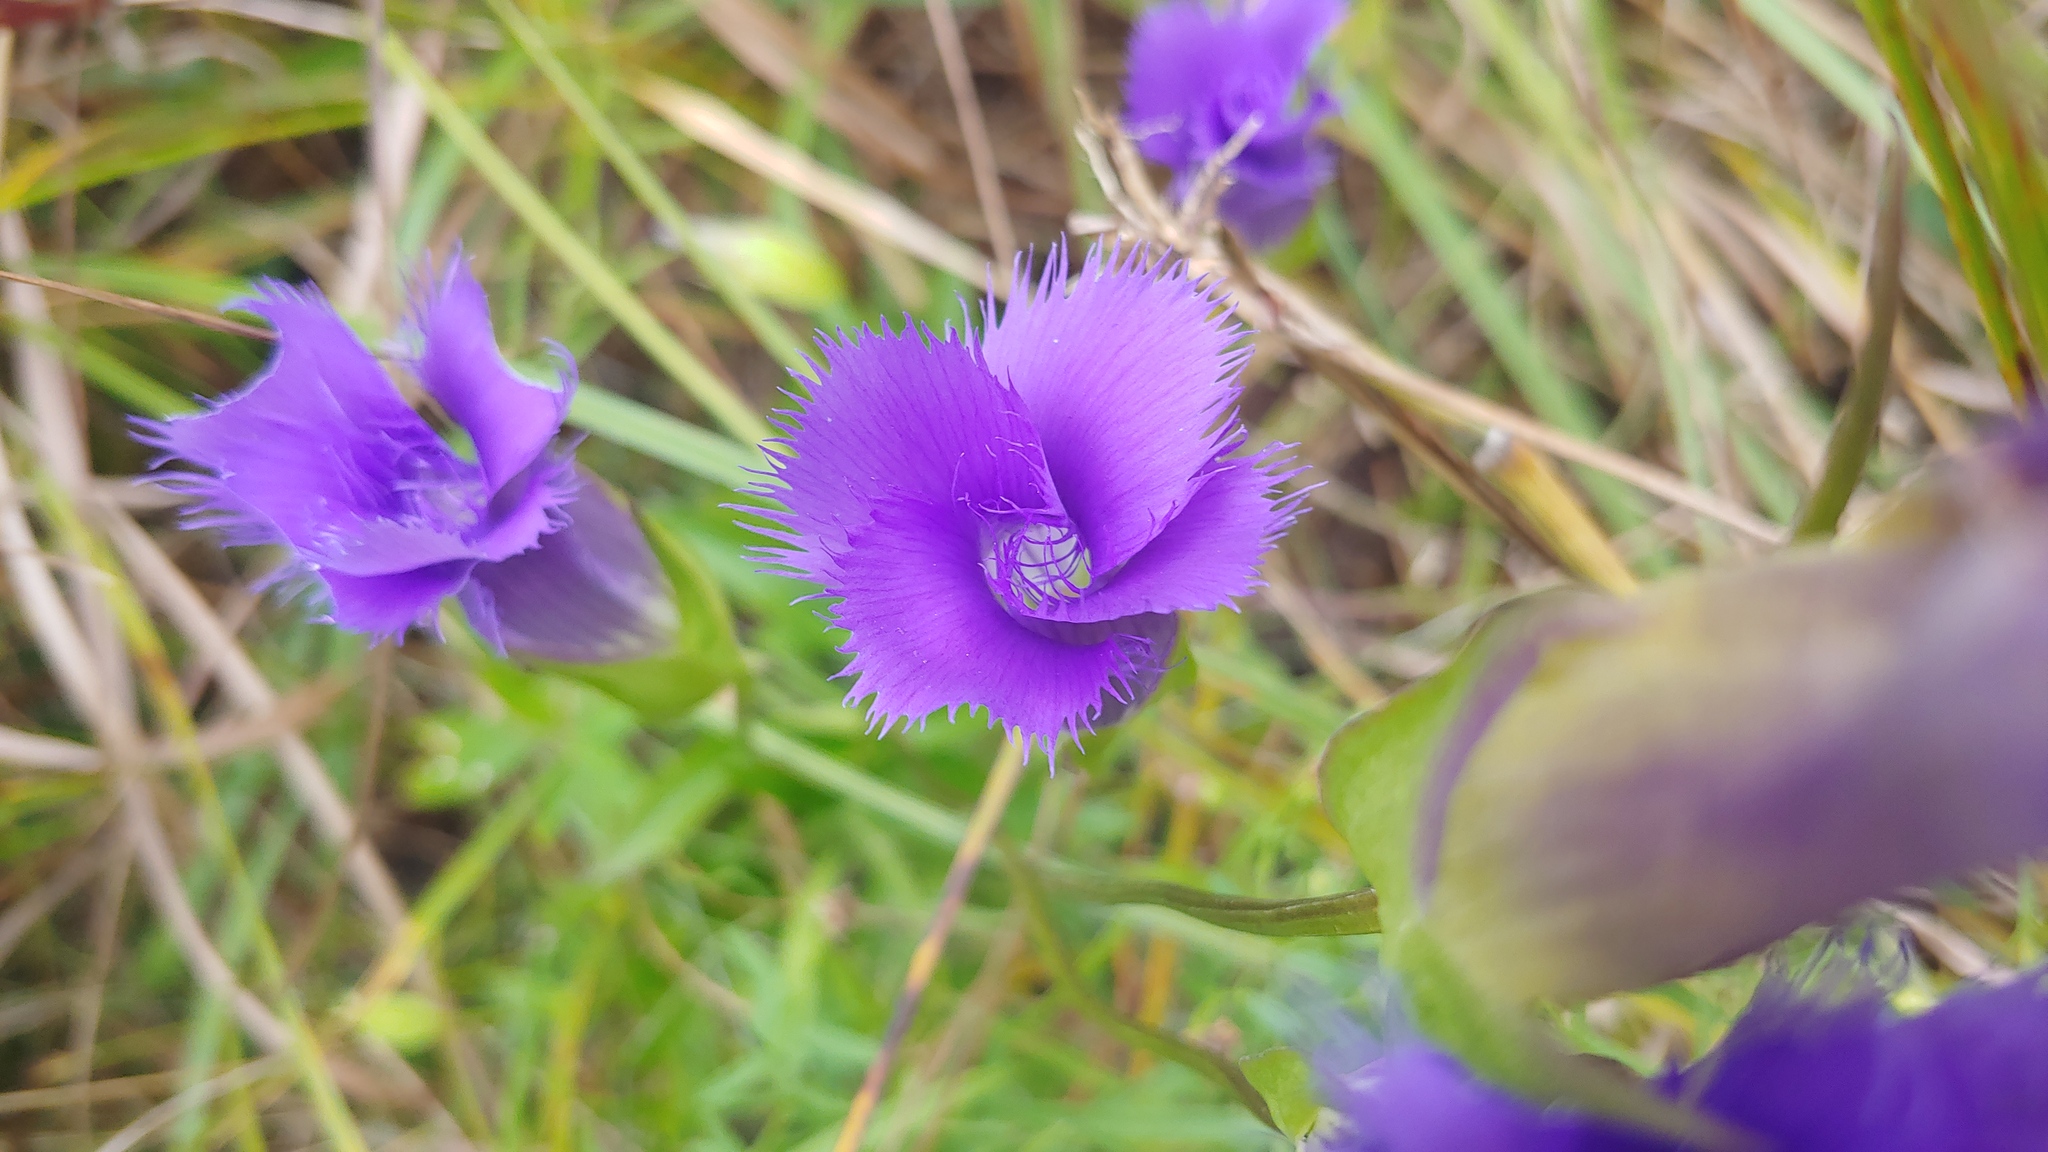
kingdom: Plantae
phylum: Tracheophyta
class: Magnoliopsida
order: Gentianales
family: Gentianaceae
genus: Gentianopsis
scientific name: Gentianopsis crinita
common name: Fringed-gentian
